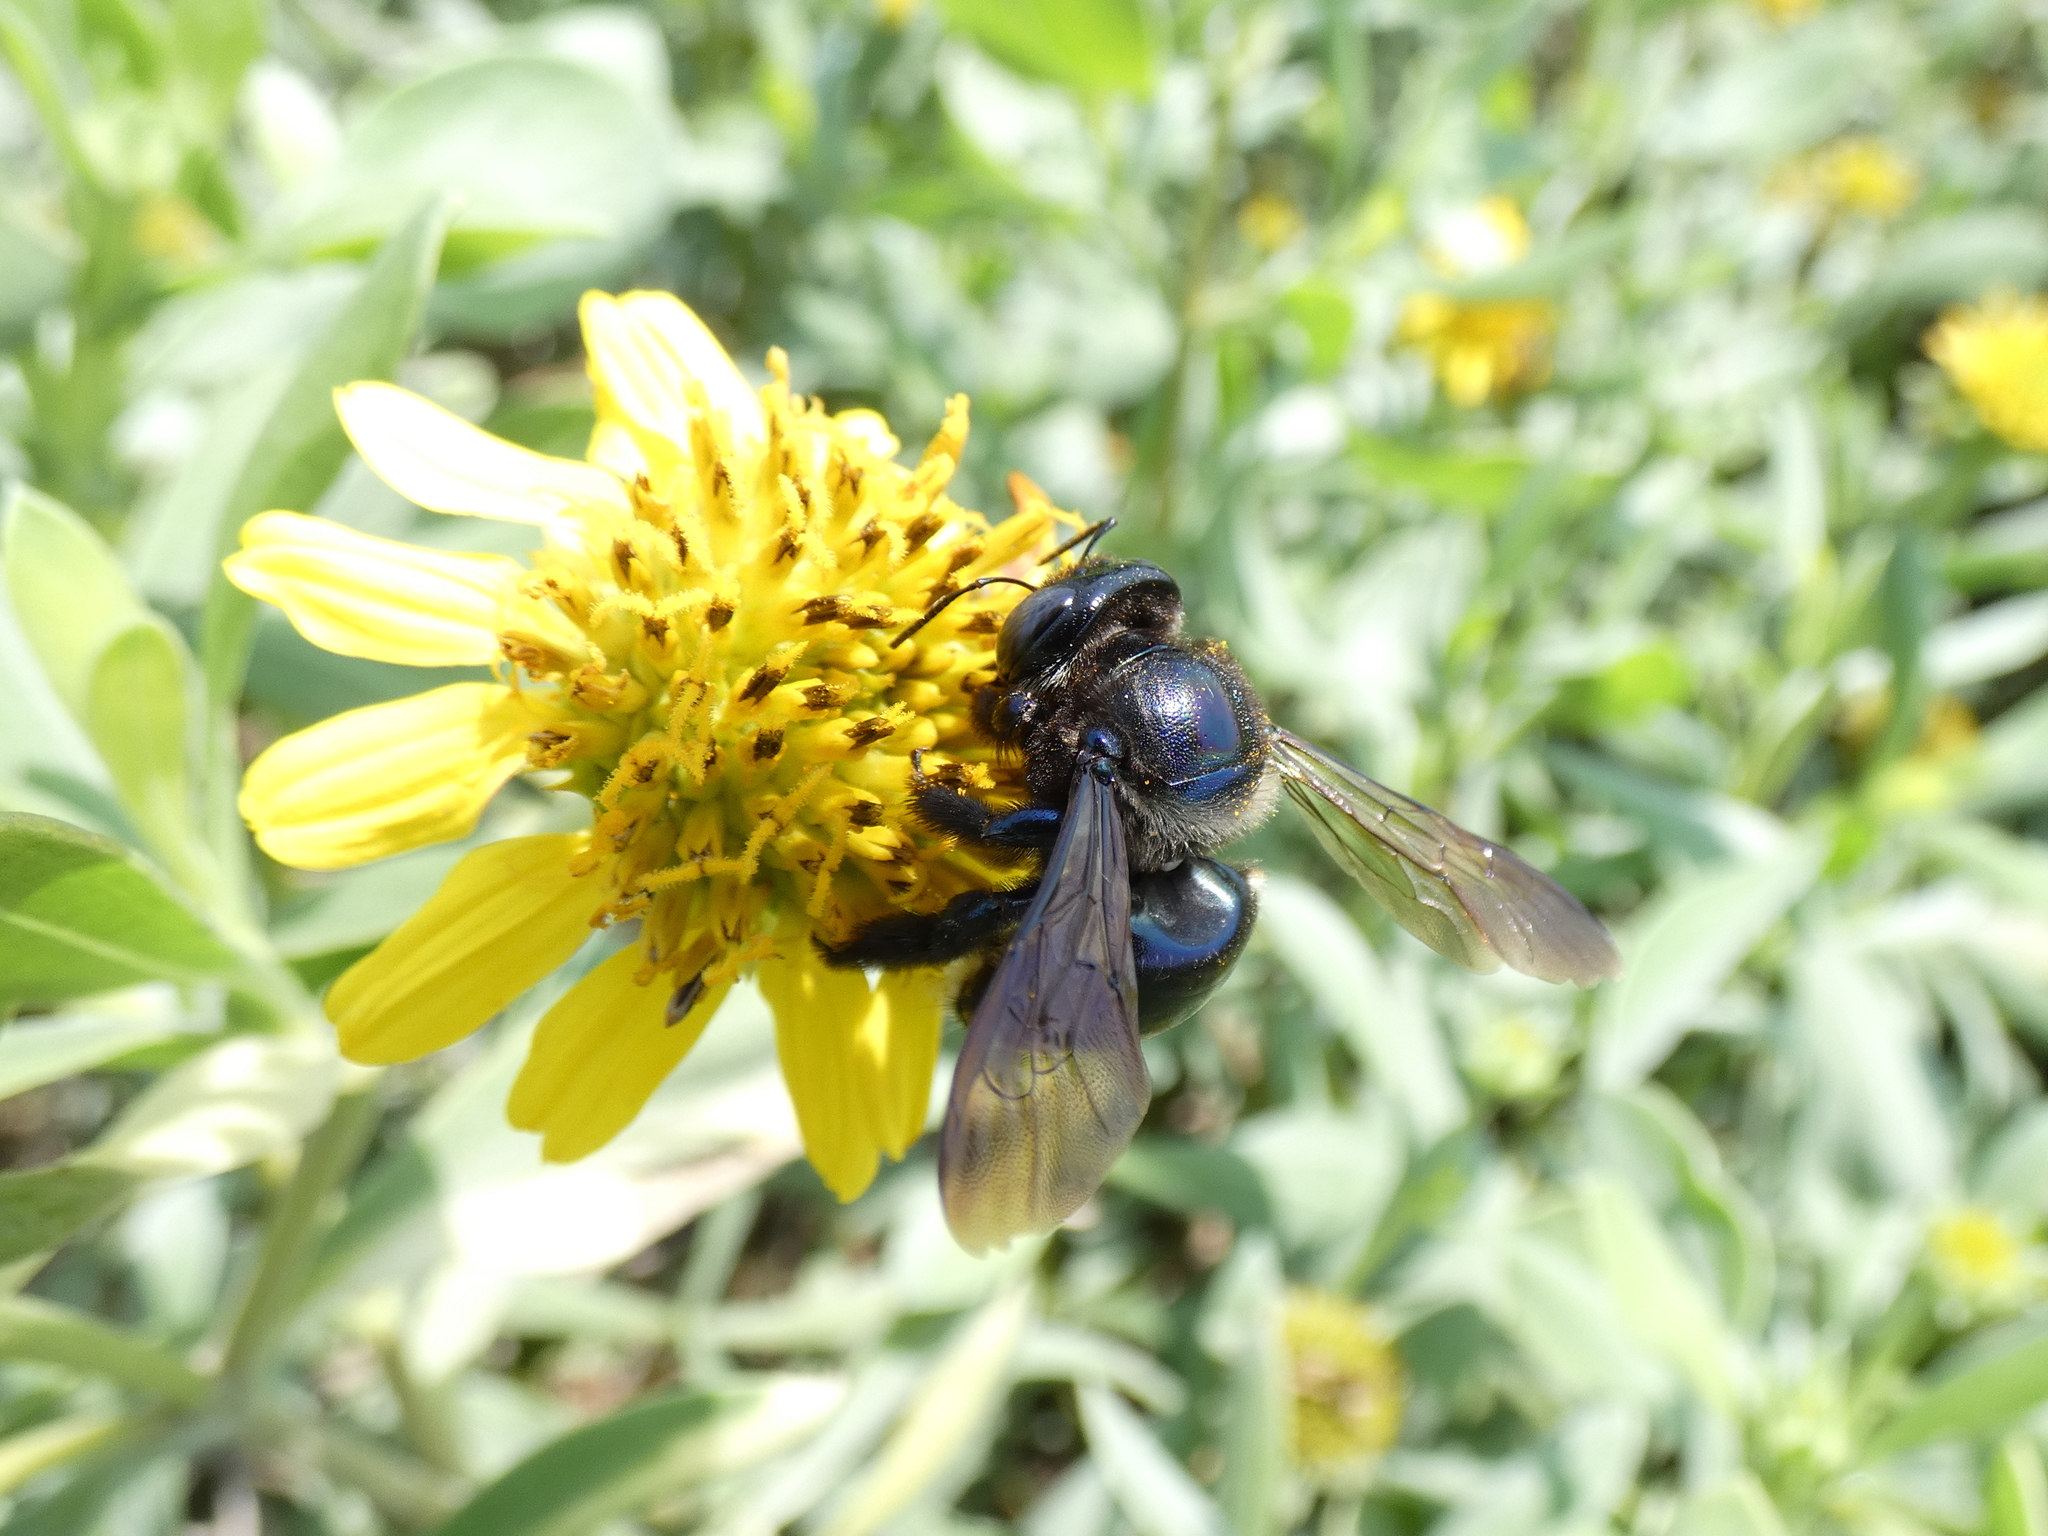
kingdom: Animalia
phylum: Arthropoda
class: Insecta
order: Hymenoptera
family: Apidae
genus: Xylocopa
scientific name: Xylocopa micans
